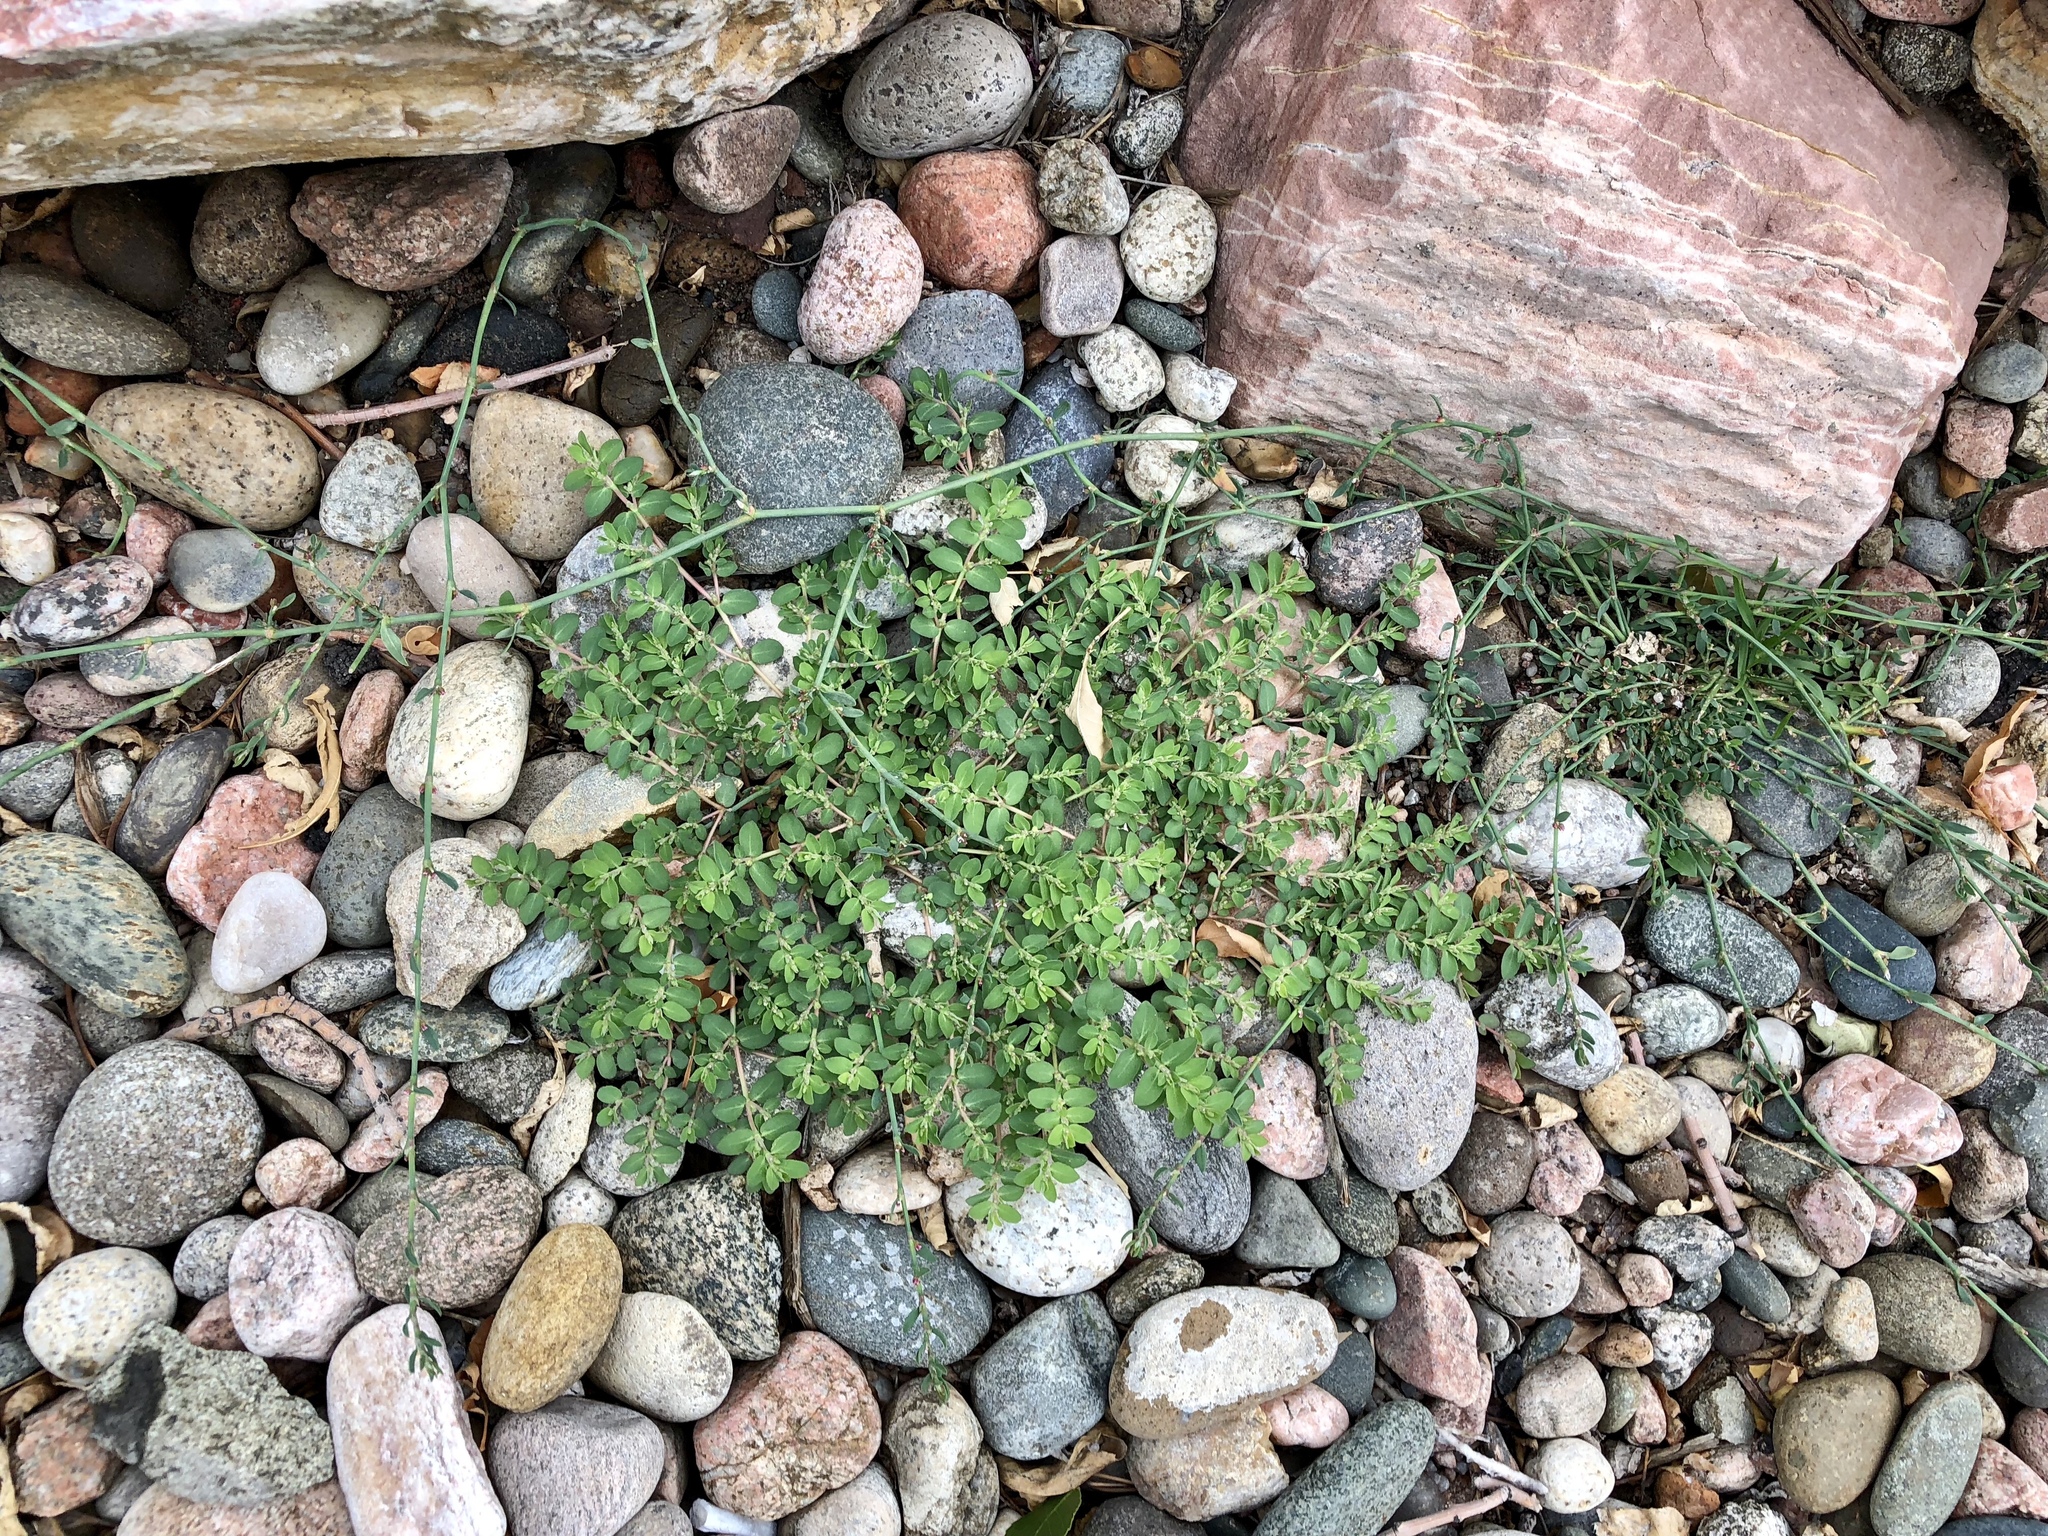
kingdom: Plantae
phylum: Tracheophyta
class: Magnoliopsida
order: Malpighiales
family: Euphorbiaceae
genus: Euphorbia
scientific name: Euphorbia prostrata
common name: Prostrate sandmat
